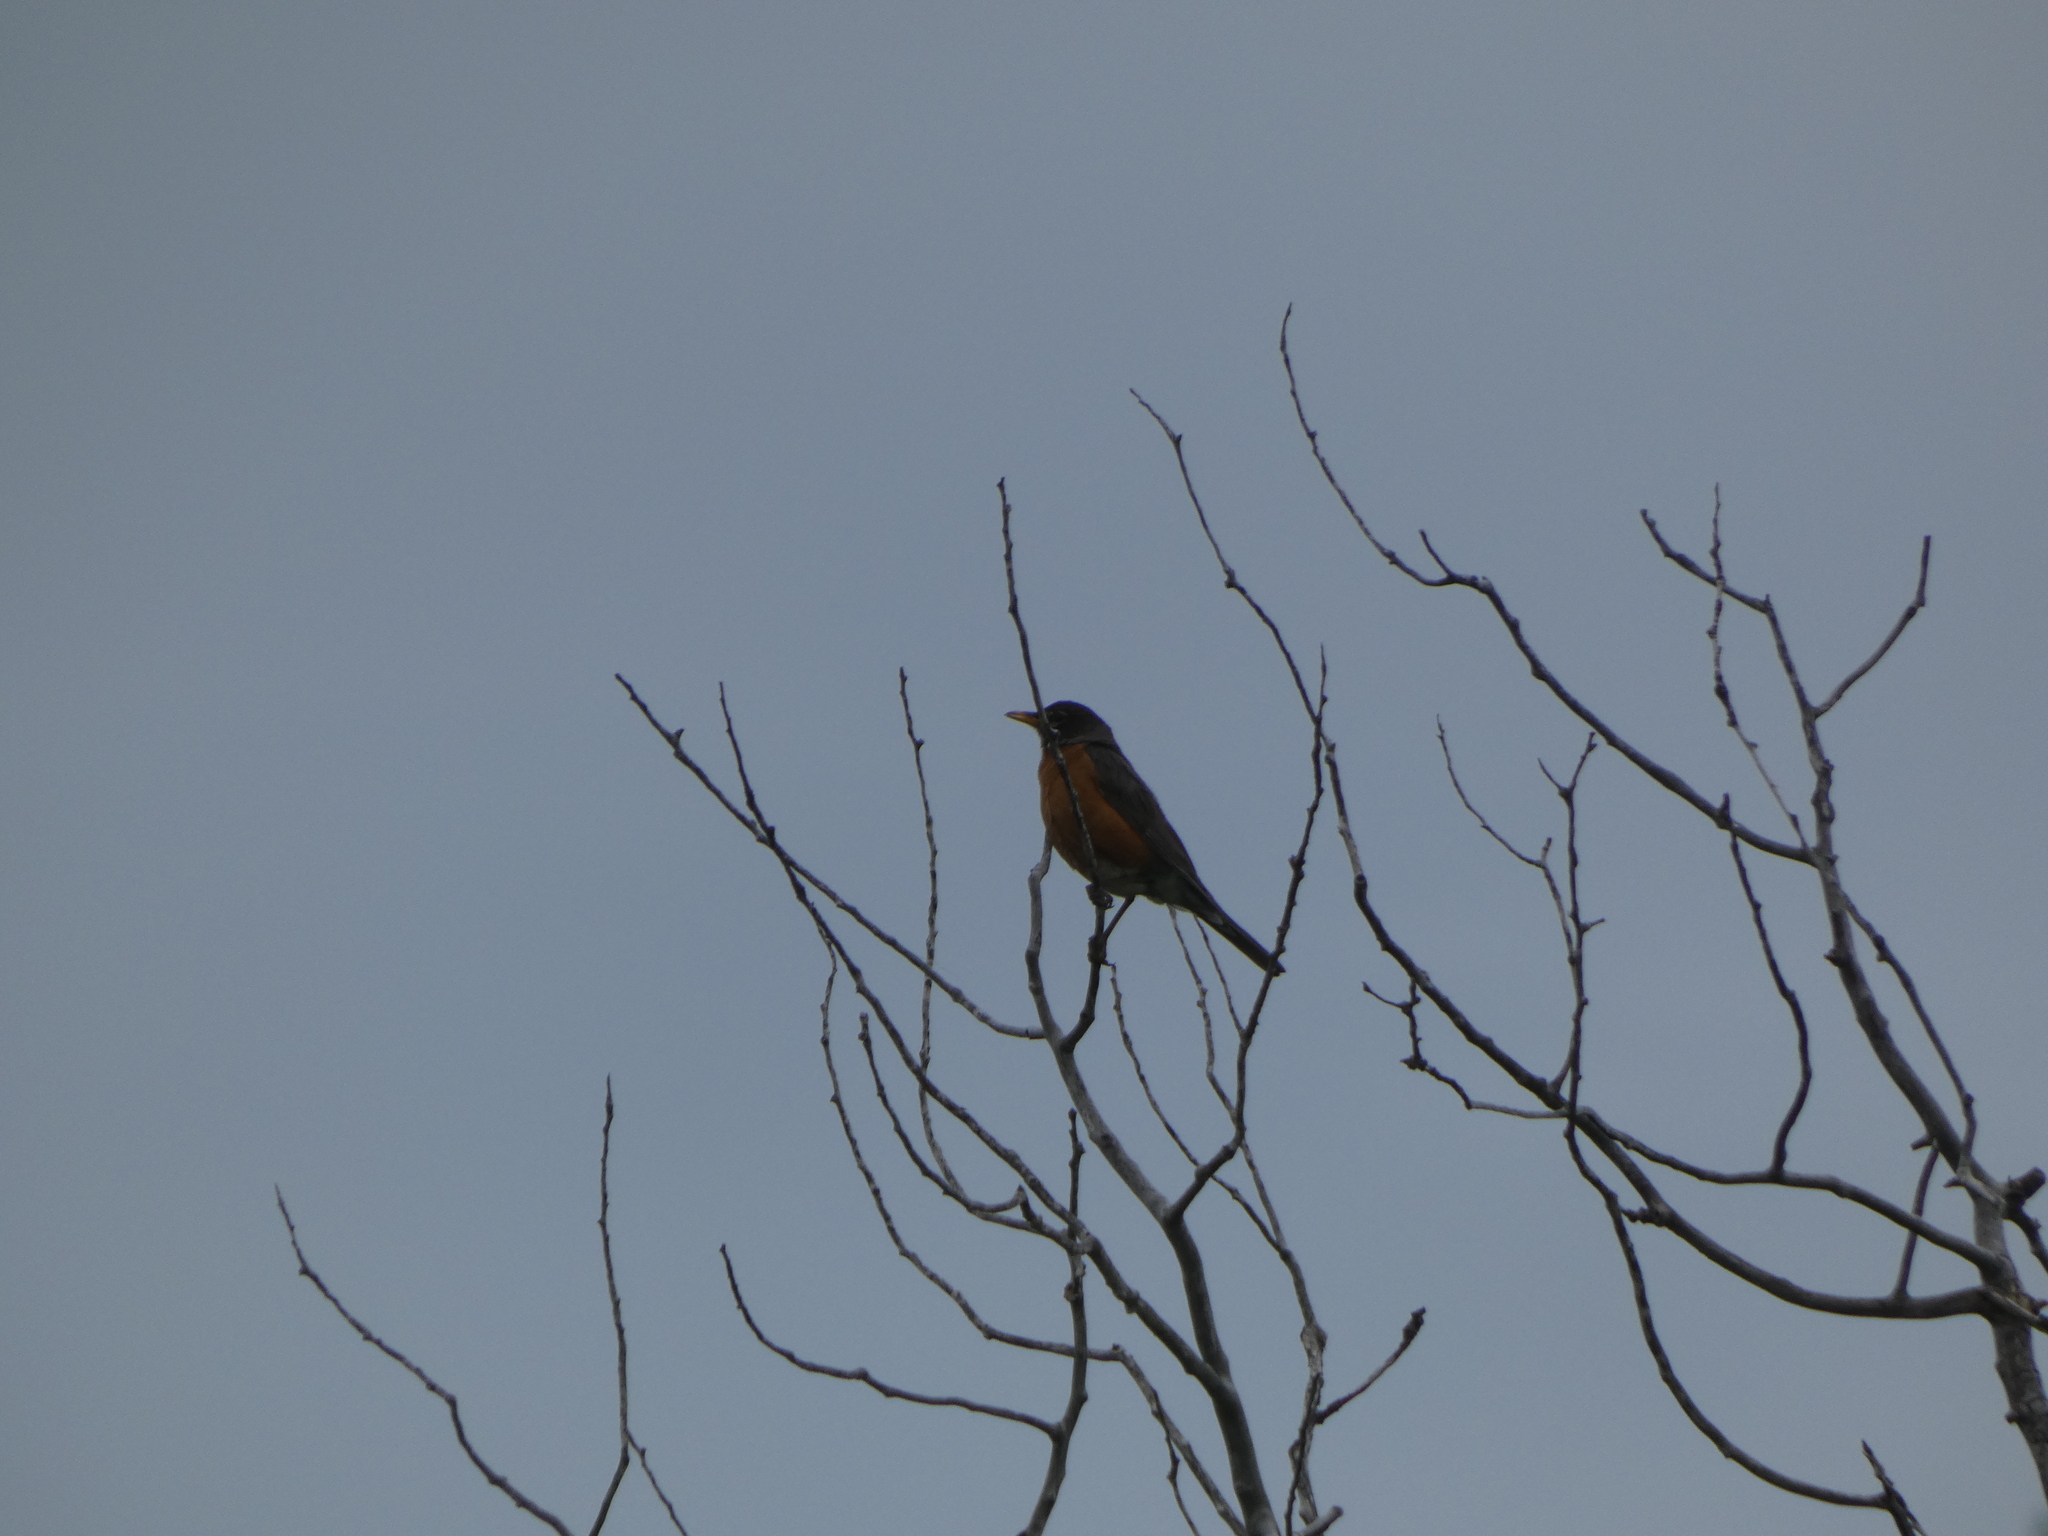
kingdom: Animalia
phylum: Chordata
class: Aves
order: Passeriformes
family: Turdidae
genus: Turdus
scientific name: Turdus migratorius
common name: American robin
